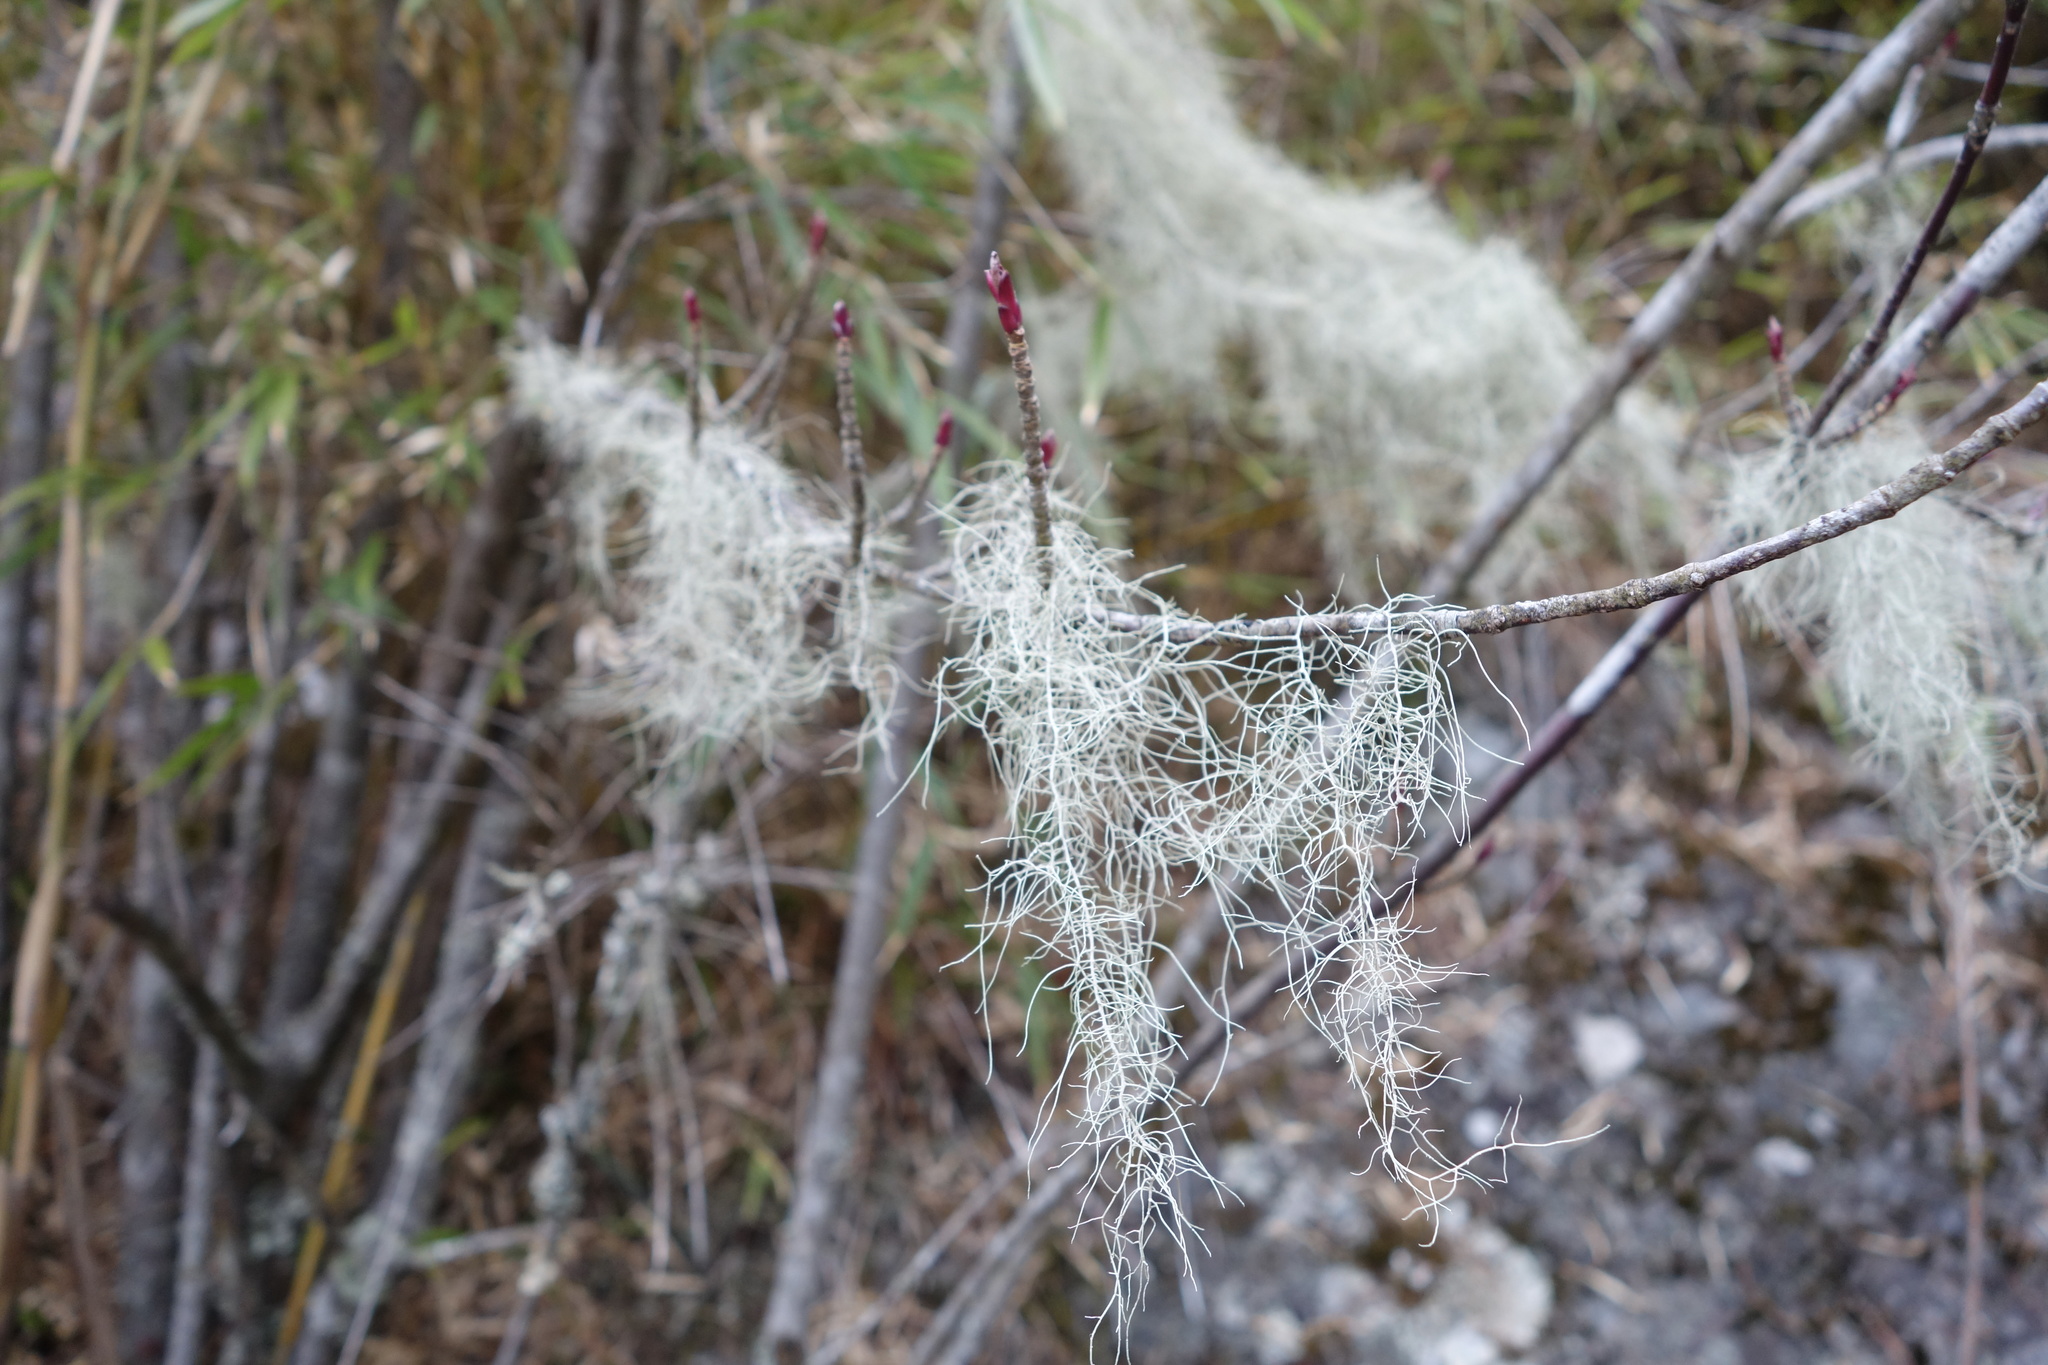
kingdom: Fungi
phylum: Ascomycota
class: Lecanoromycetes
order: Lecanorales
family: Parmeliaceae
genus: Dolichousnea
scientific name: Dolichousnea longissima
